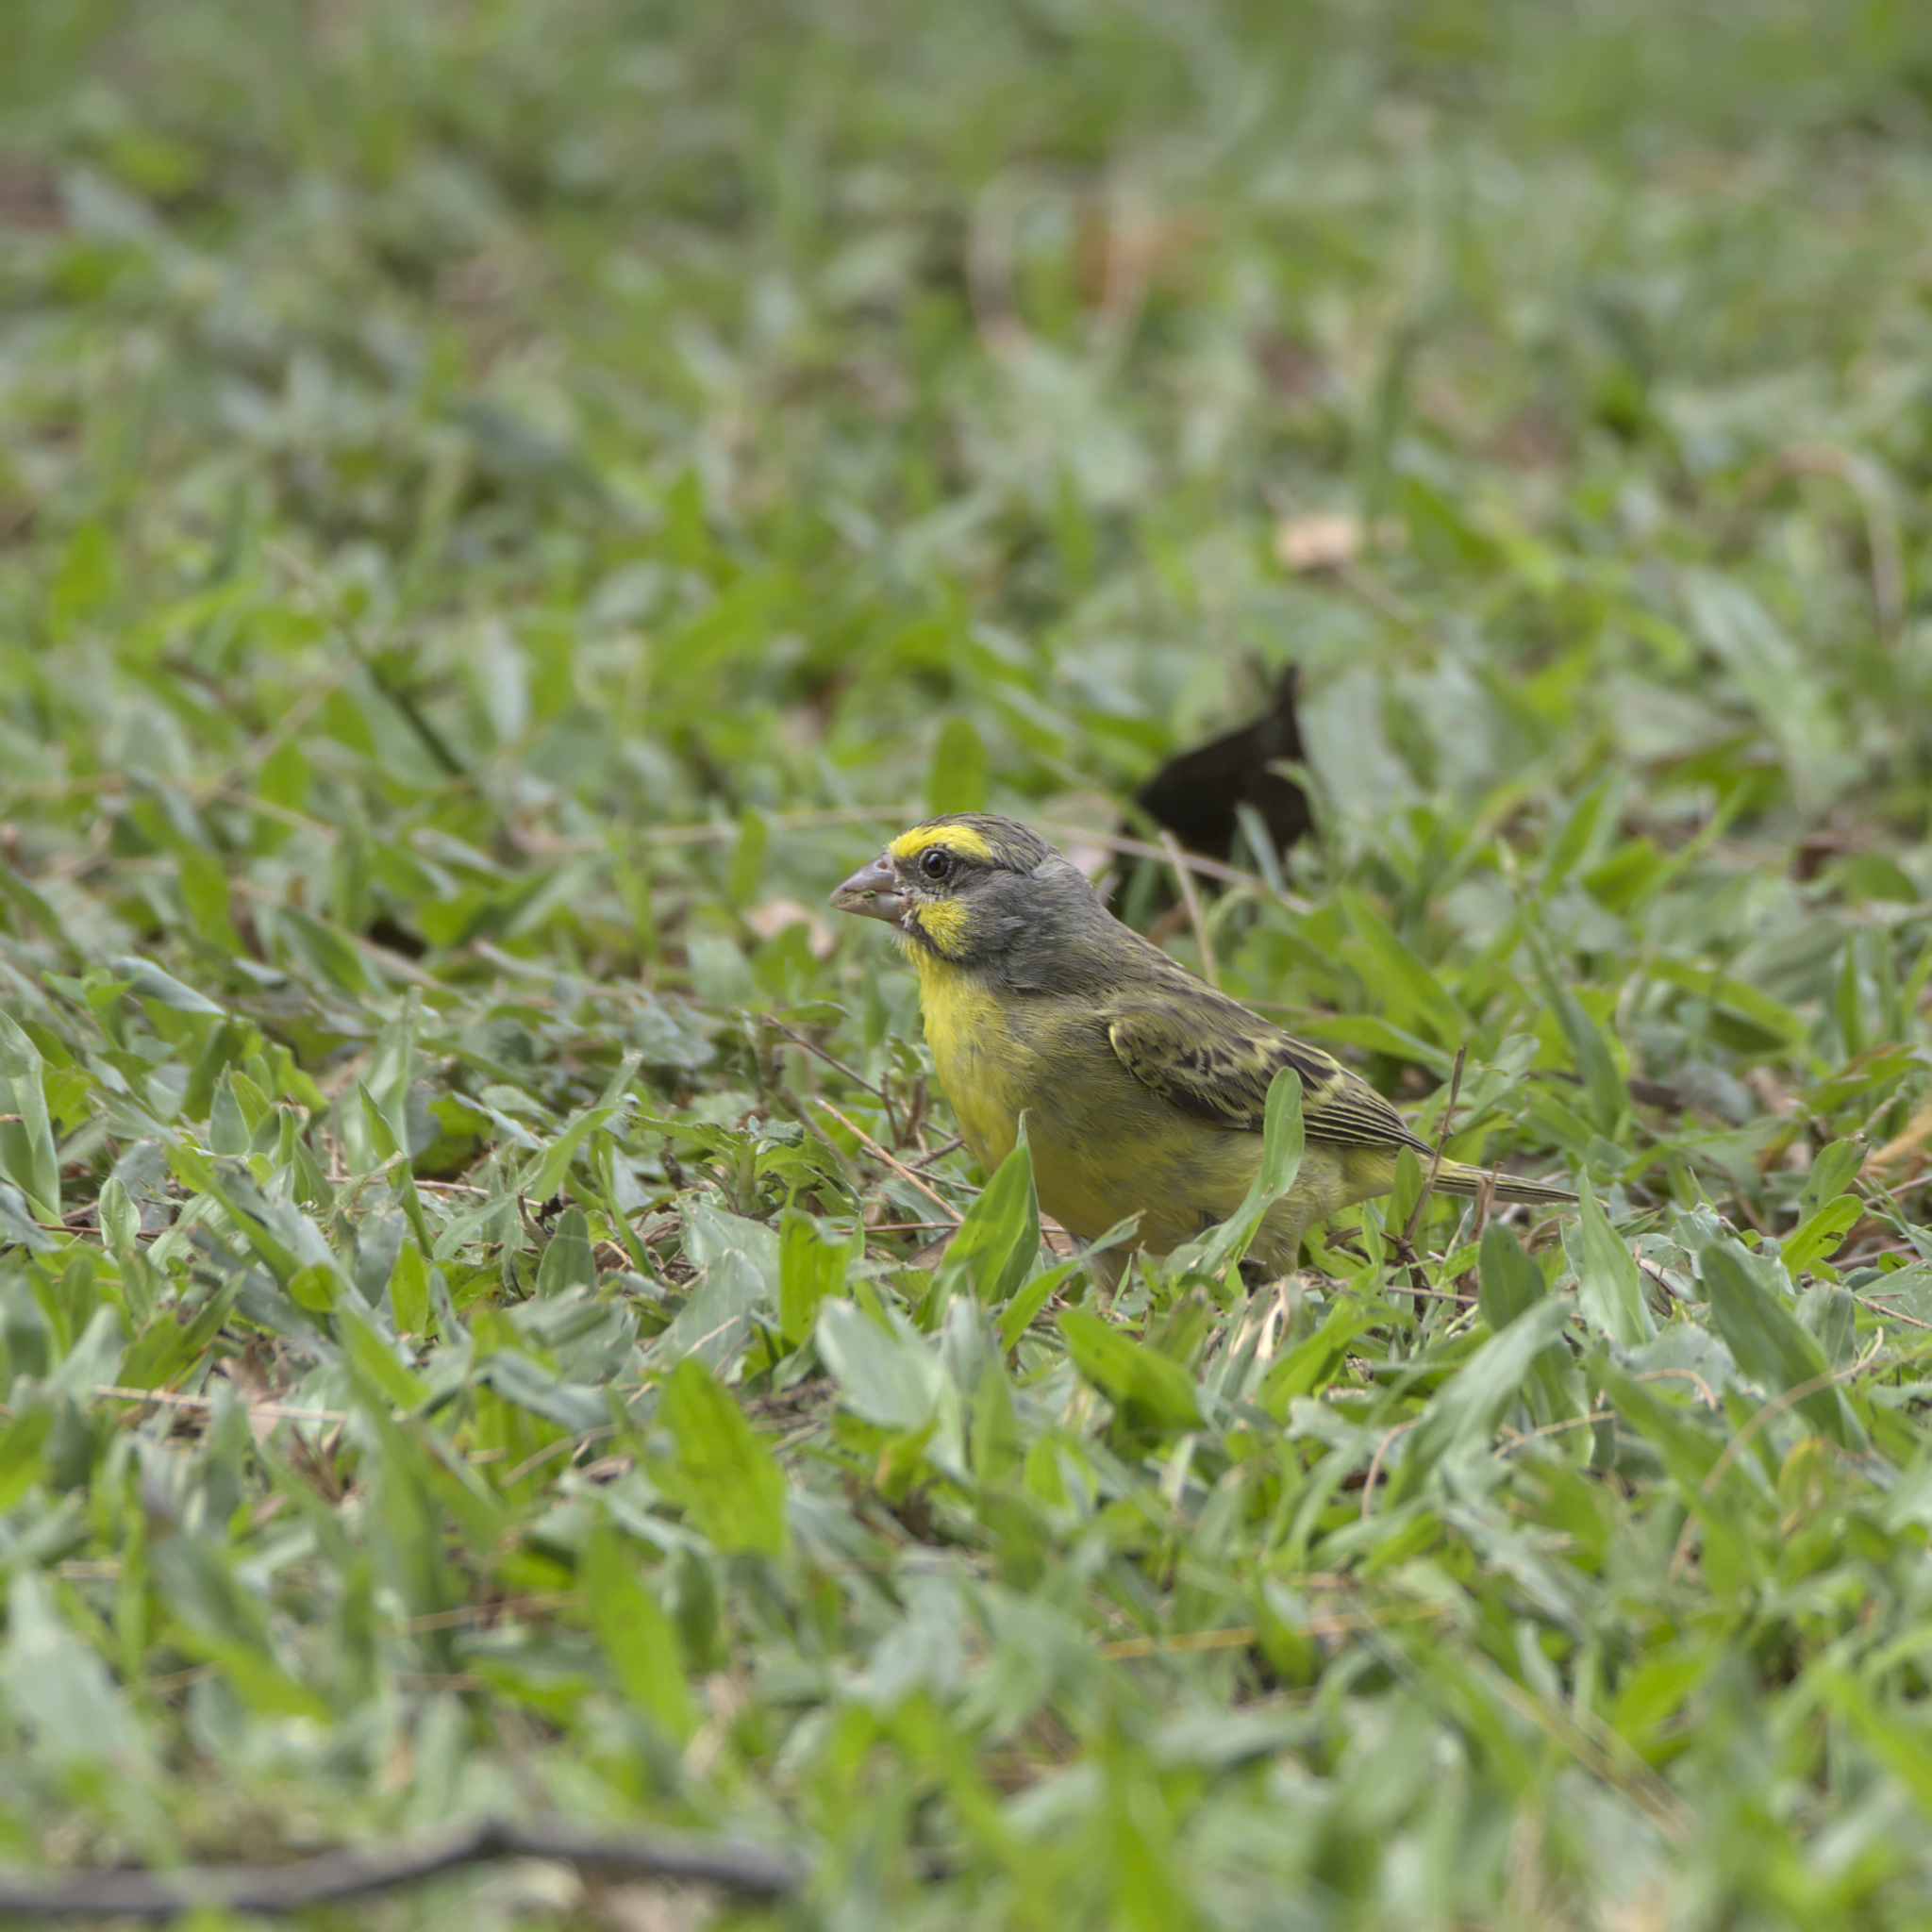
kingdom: Animalia
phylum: Chordata
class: Aves
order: Passeriformes
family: Fringillidae
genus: Crithagra
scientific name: Crithagra mozambica
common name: Yellow-fronted canary
